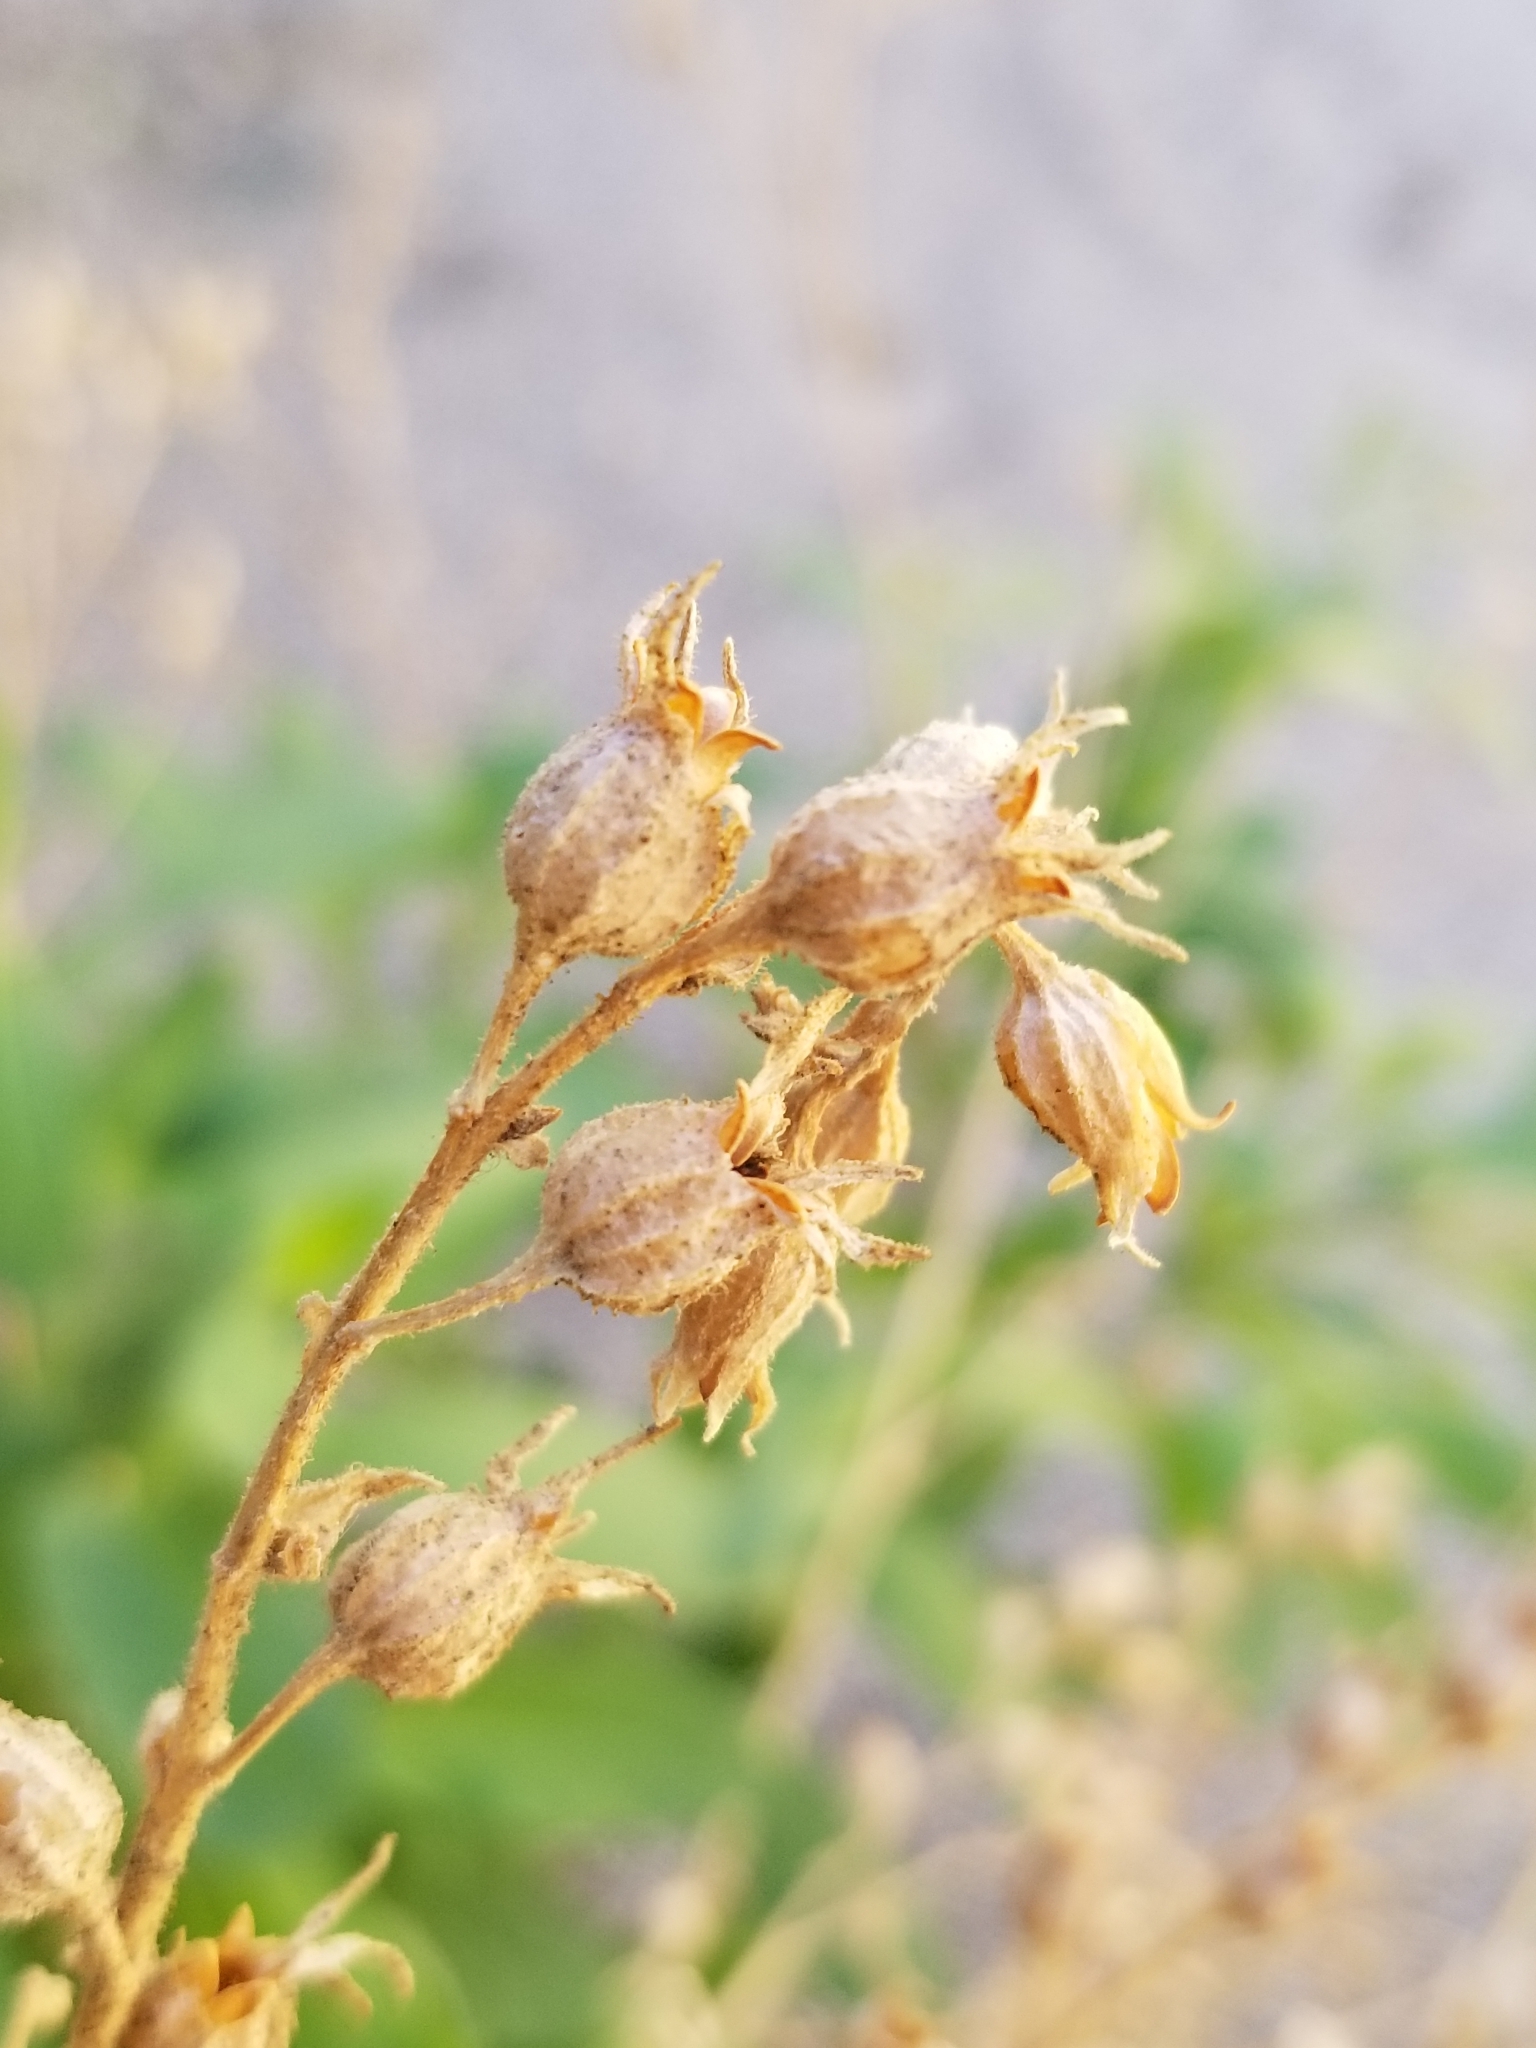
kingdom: Plantae
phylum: Tracheophyta
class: Magnoliopsida
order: Solanales
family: Solanaceae
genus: Nicotiana
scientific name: Nicotiana obtusifolia
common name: Desert tobacco
